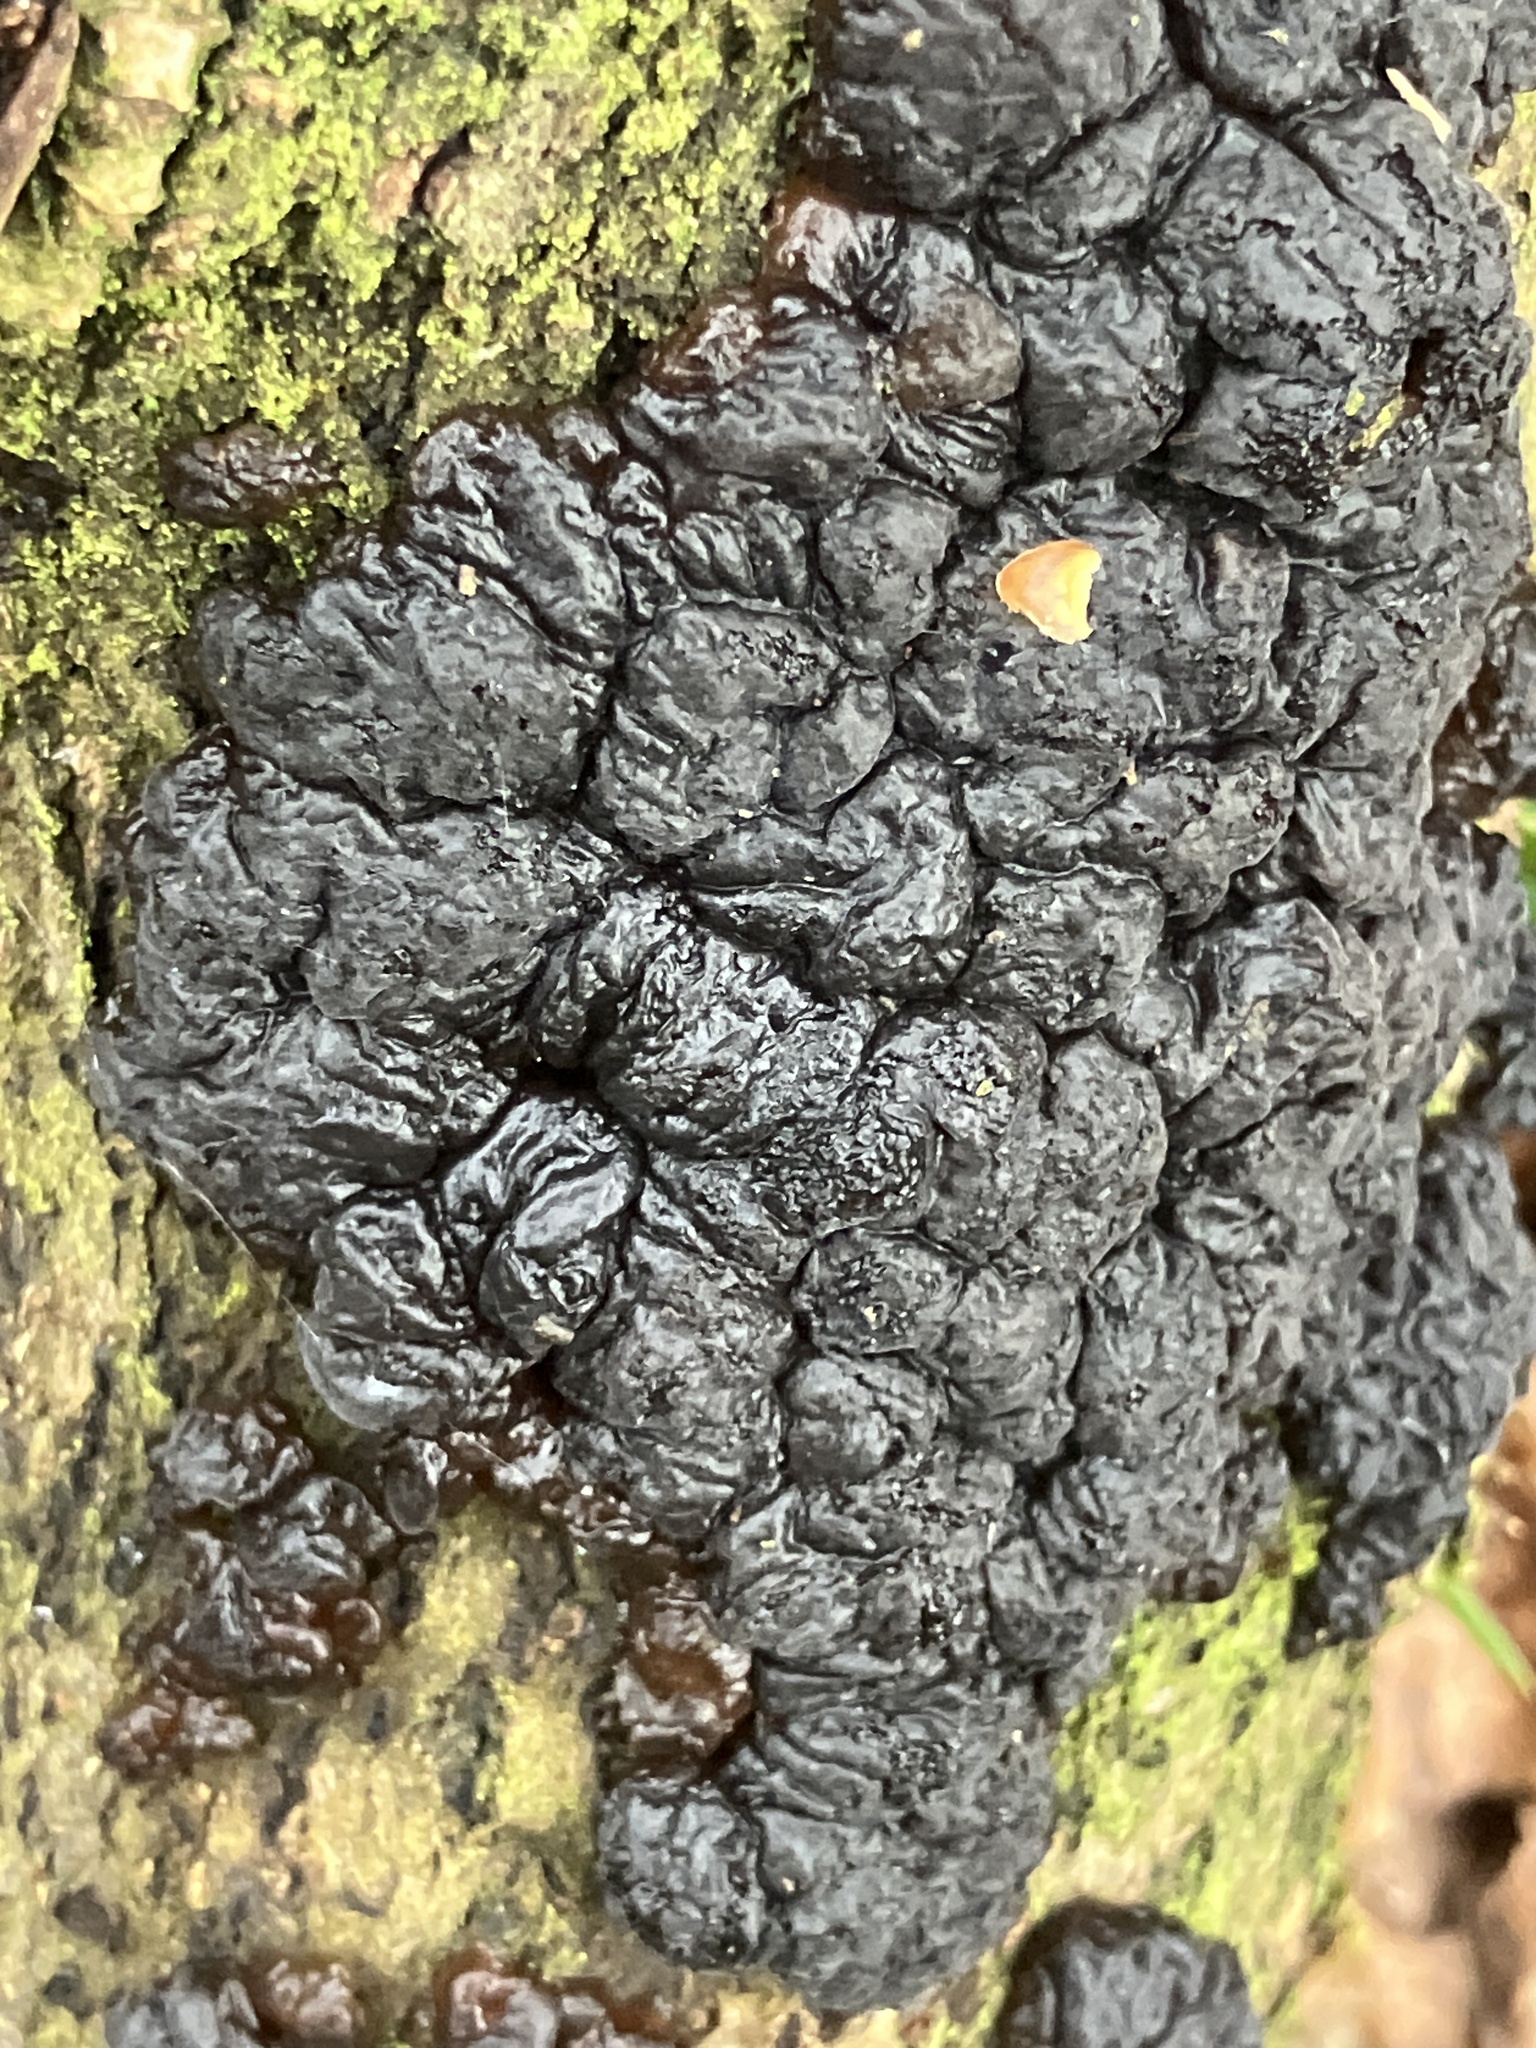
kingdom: Fungi
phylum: Basidiomycota
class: Agaricomycetes
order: Auriculariales
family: Auriculariaceae
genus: Exidia
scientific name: Exidia nigricans
